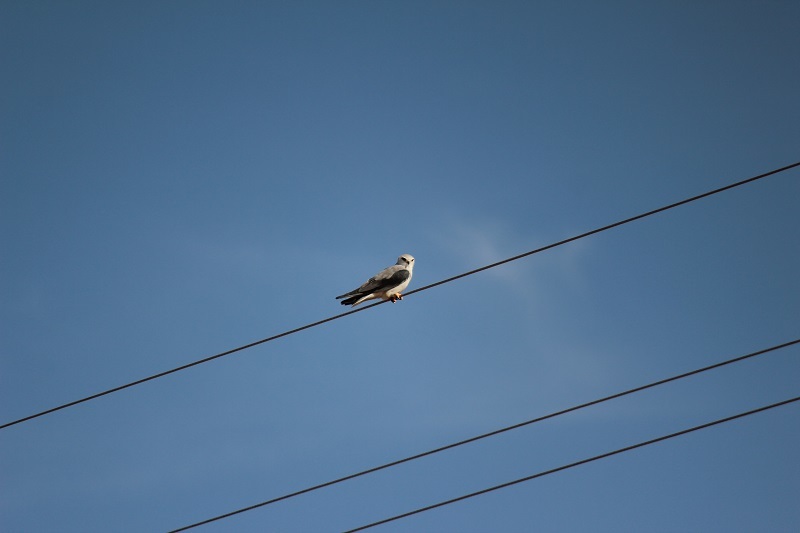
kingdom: Animalia
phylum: Chordata
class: Aves
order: Accipitriformes
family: Accipitridae
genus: Elanus
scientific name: Elanus caeruleus
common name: Black-winged kite
